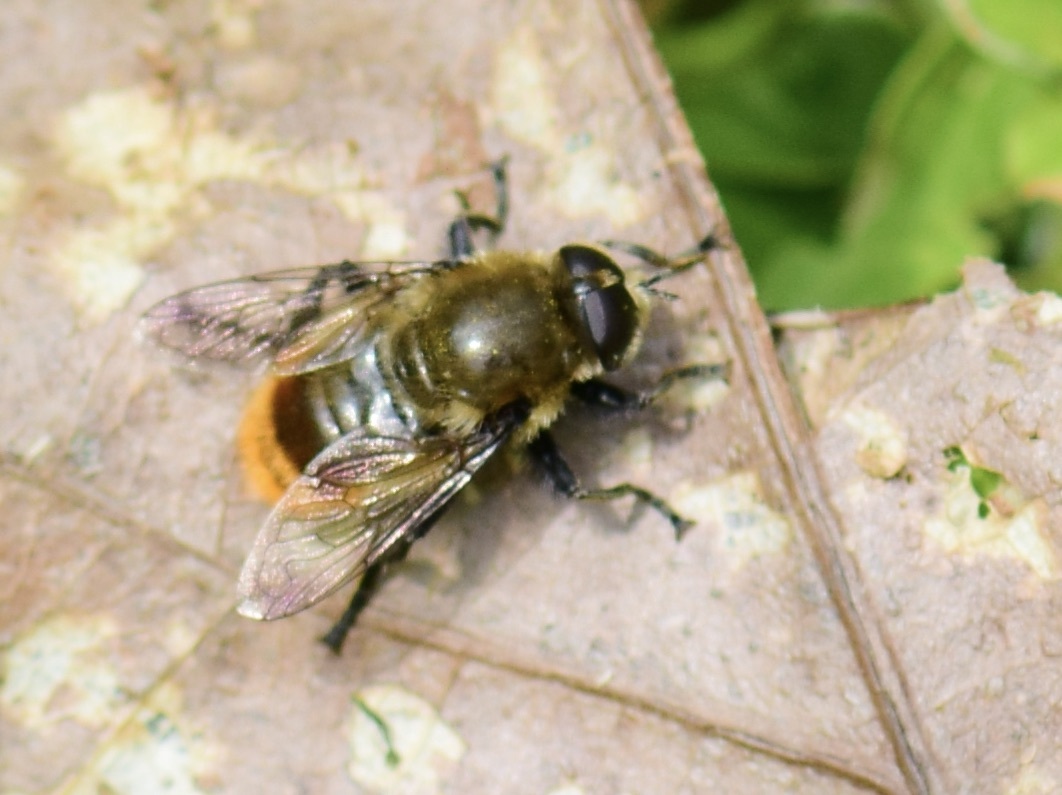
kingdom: Animalia
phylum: Arthropoda
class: Insecta
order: Diptera
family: Syrphidae
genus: Merodon
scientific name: Merodon equestris
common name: Greater bulb-fly
